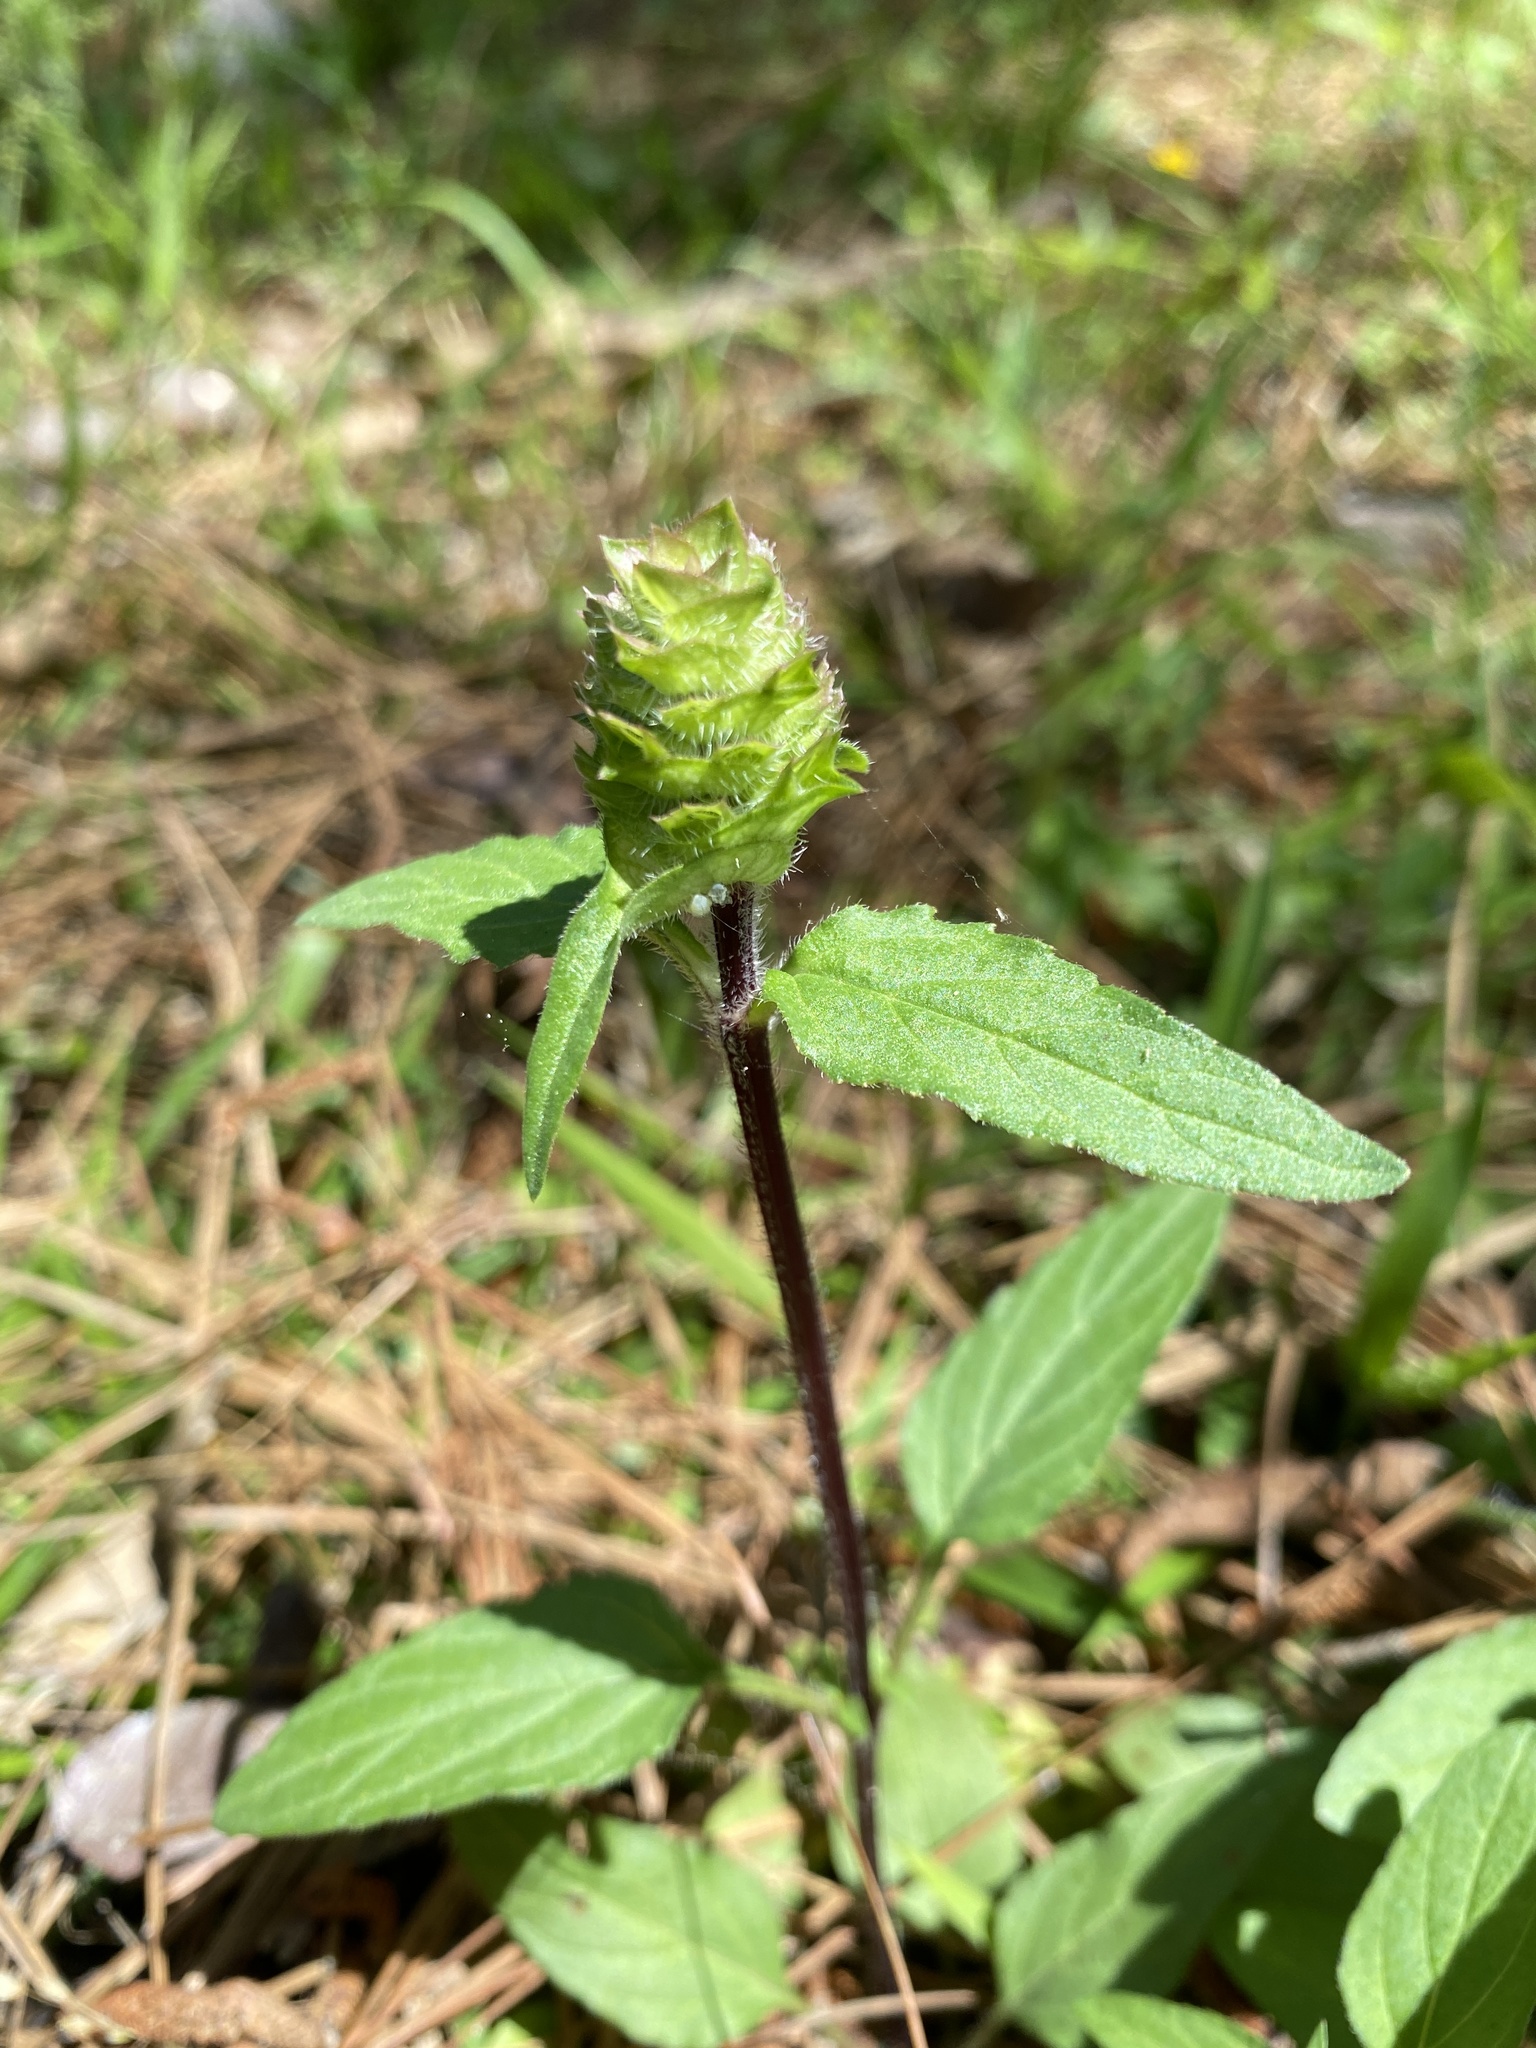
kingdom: Plantae
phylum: Tracheophyta
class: Magnoliopsida
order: Lamiales
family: Lamiaceae
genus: Prunella
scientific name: Prunella vulgaris
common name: Heal-all
